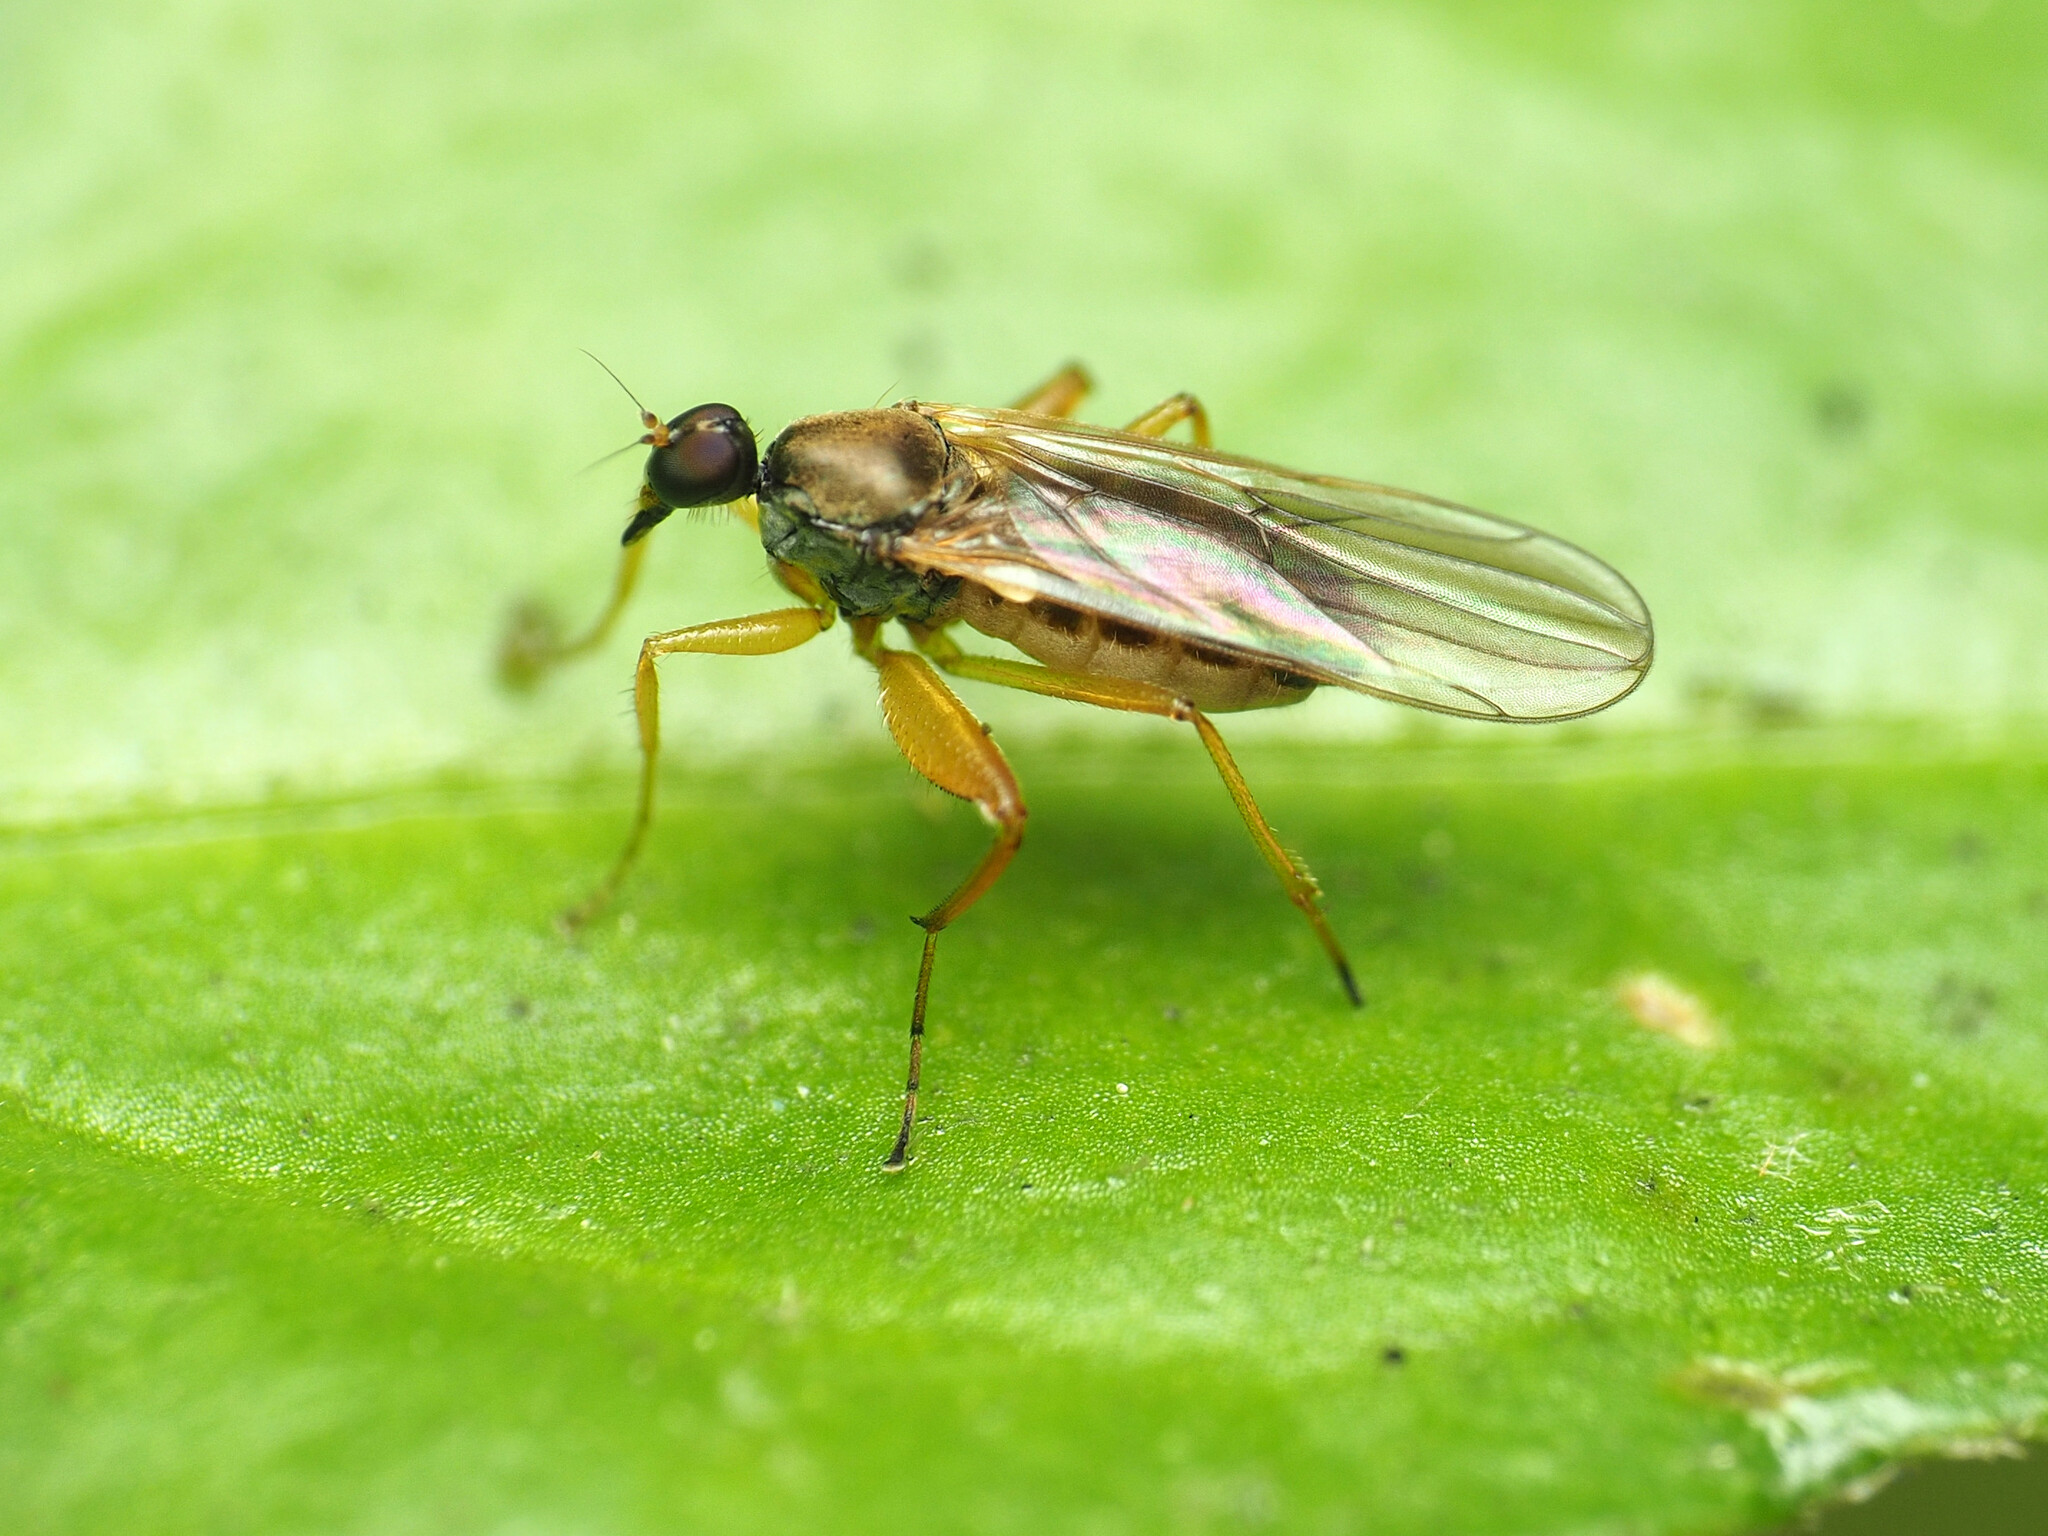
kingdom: Animalia
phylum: Arthropoda
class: Insecta
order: Diptera
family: Hybotidae
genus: Platypalpus
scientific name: Platypalpus discifer
